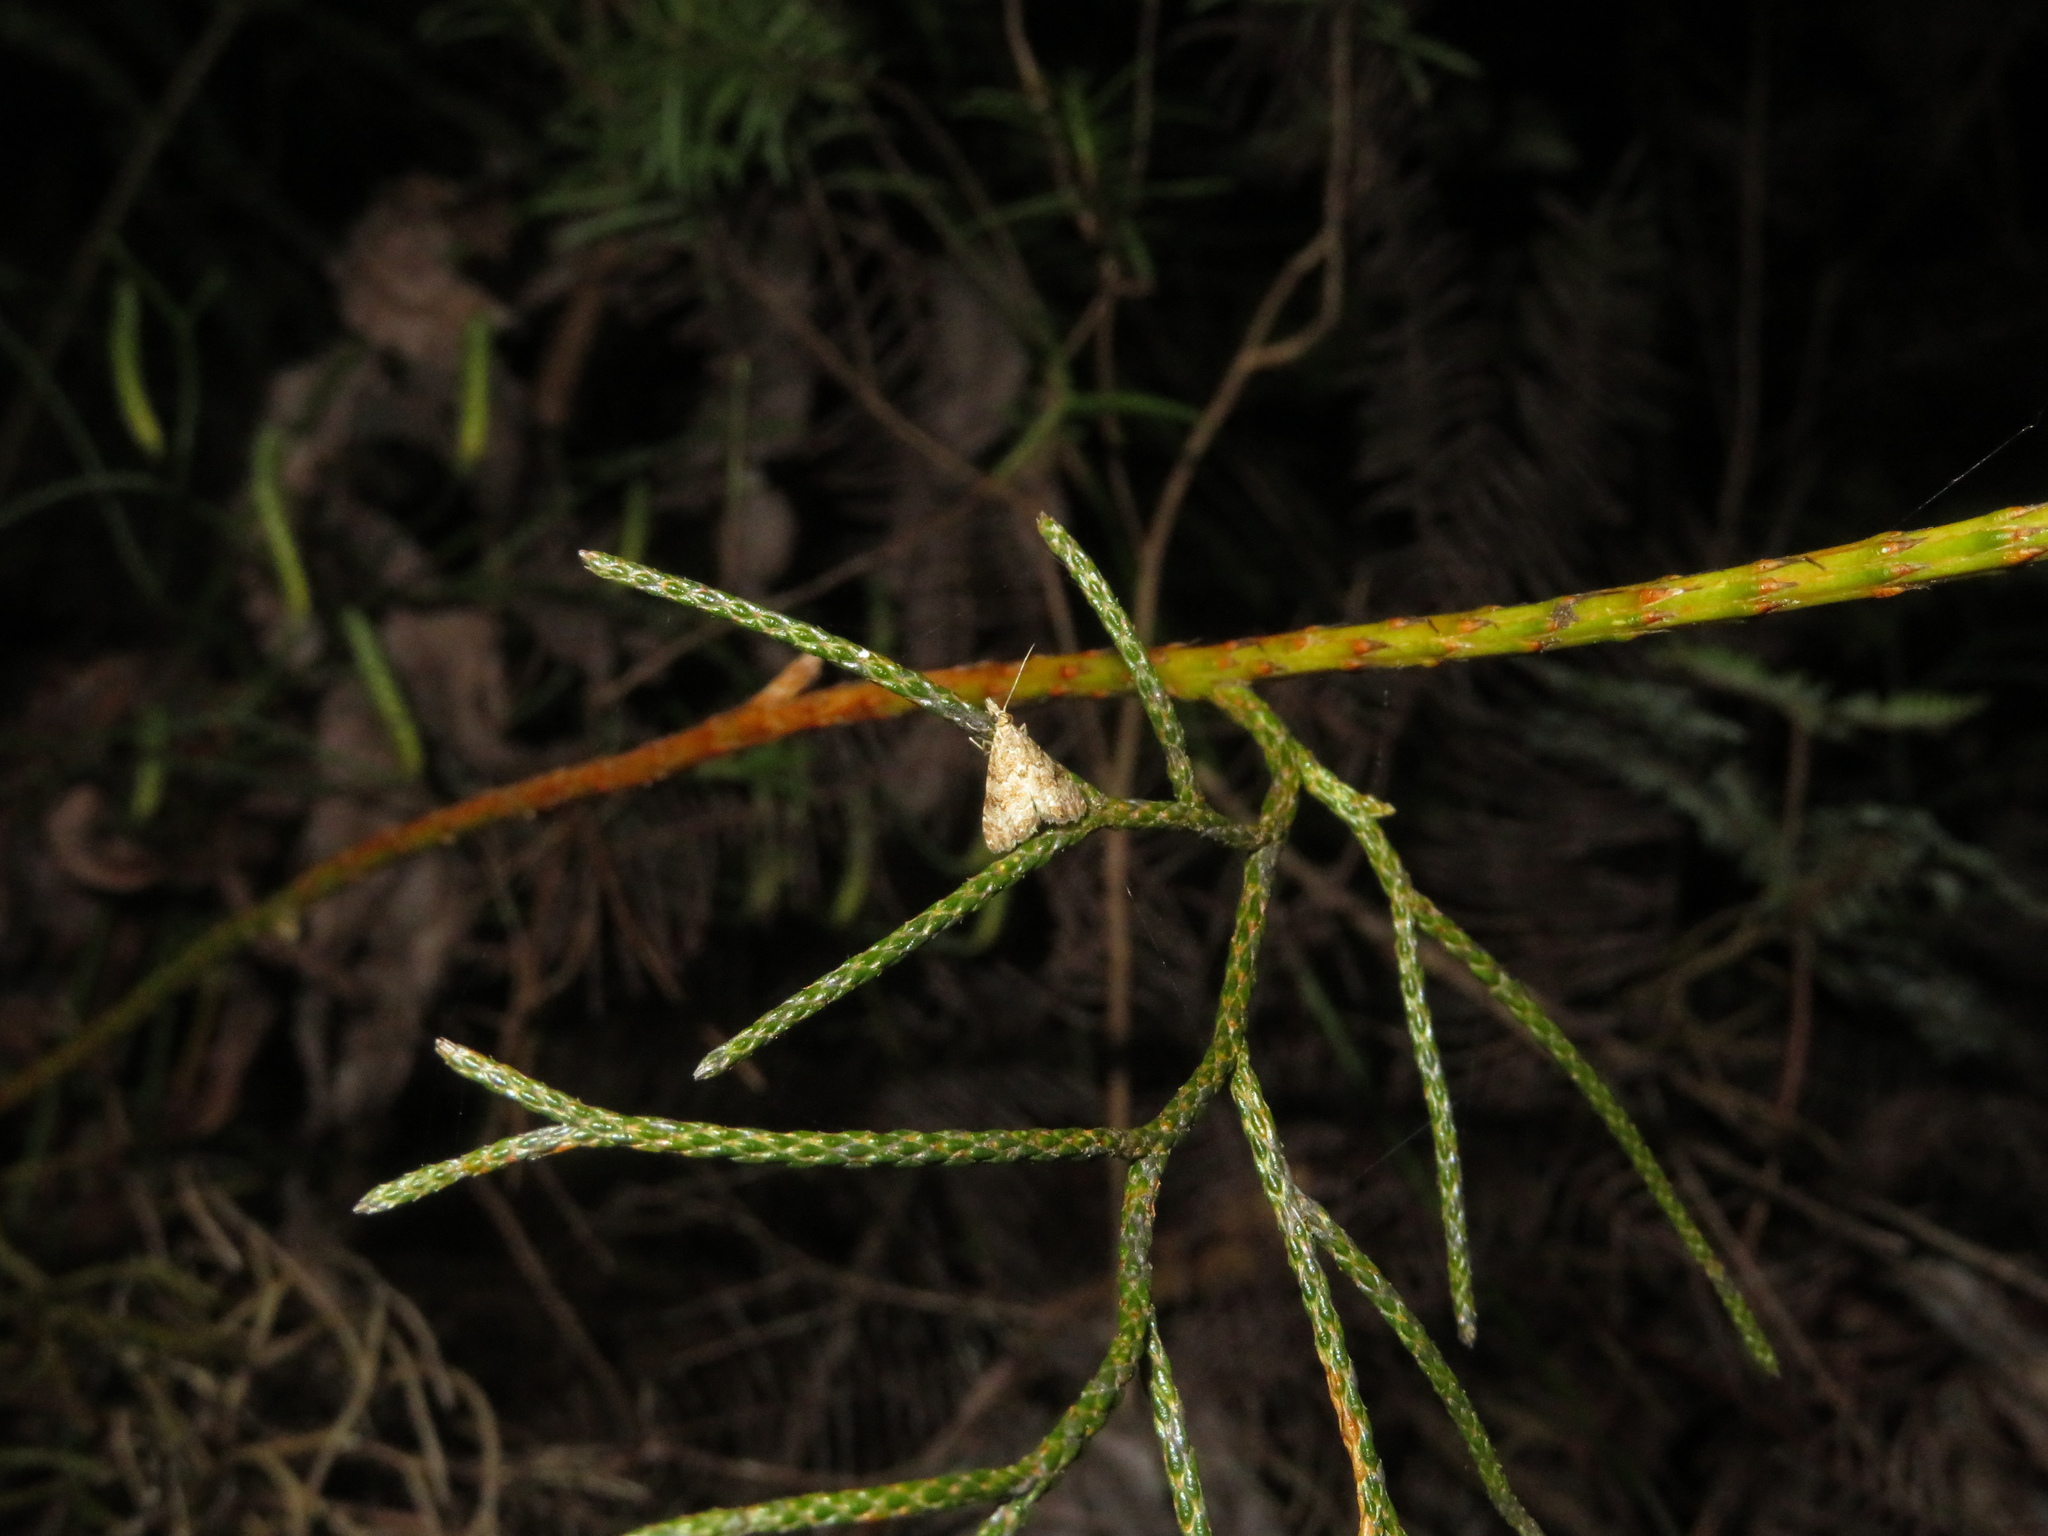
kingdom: Animalia
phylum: Arthropoda
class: Insecta
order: Lepidoptera
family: Crambidae
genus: Glaucocharis
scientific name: Glaucocharis parorma
